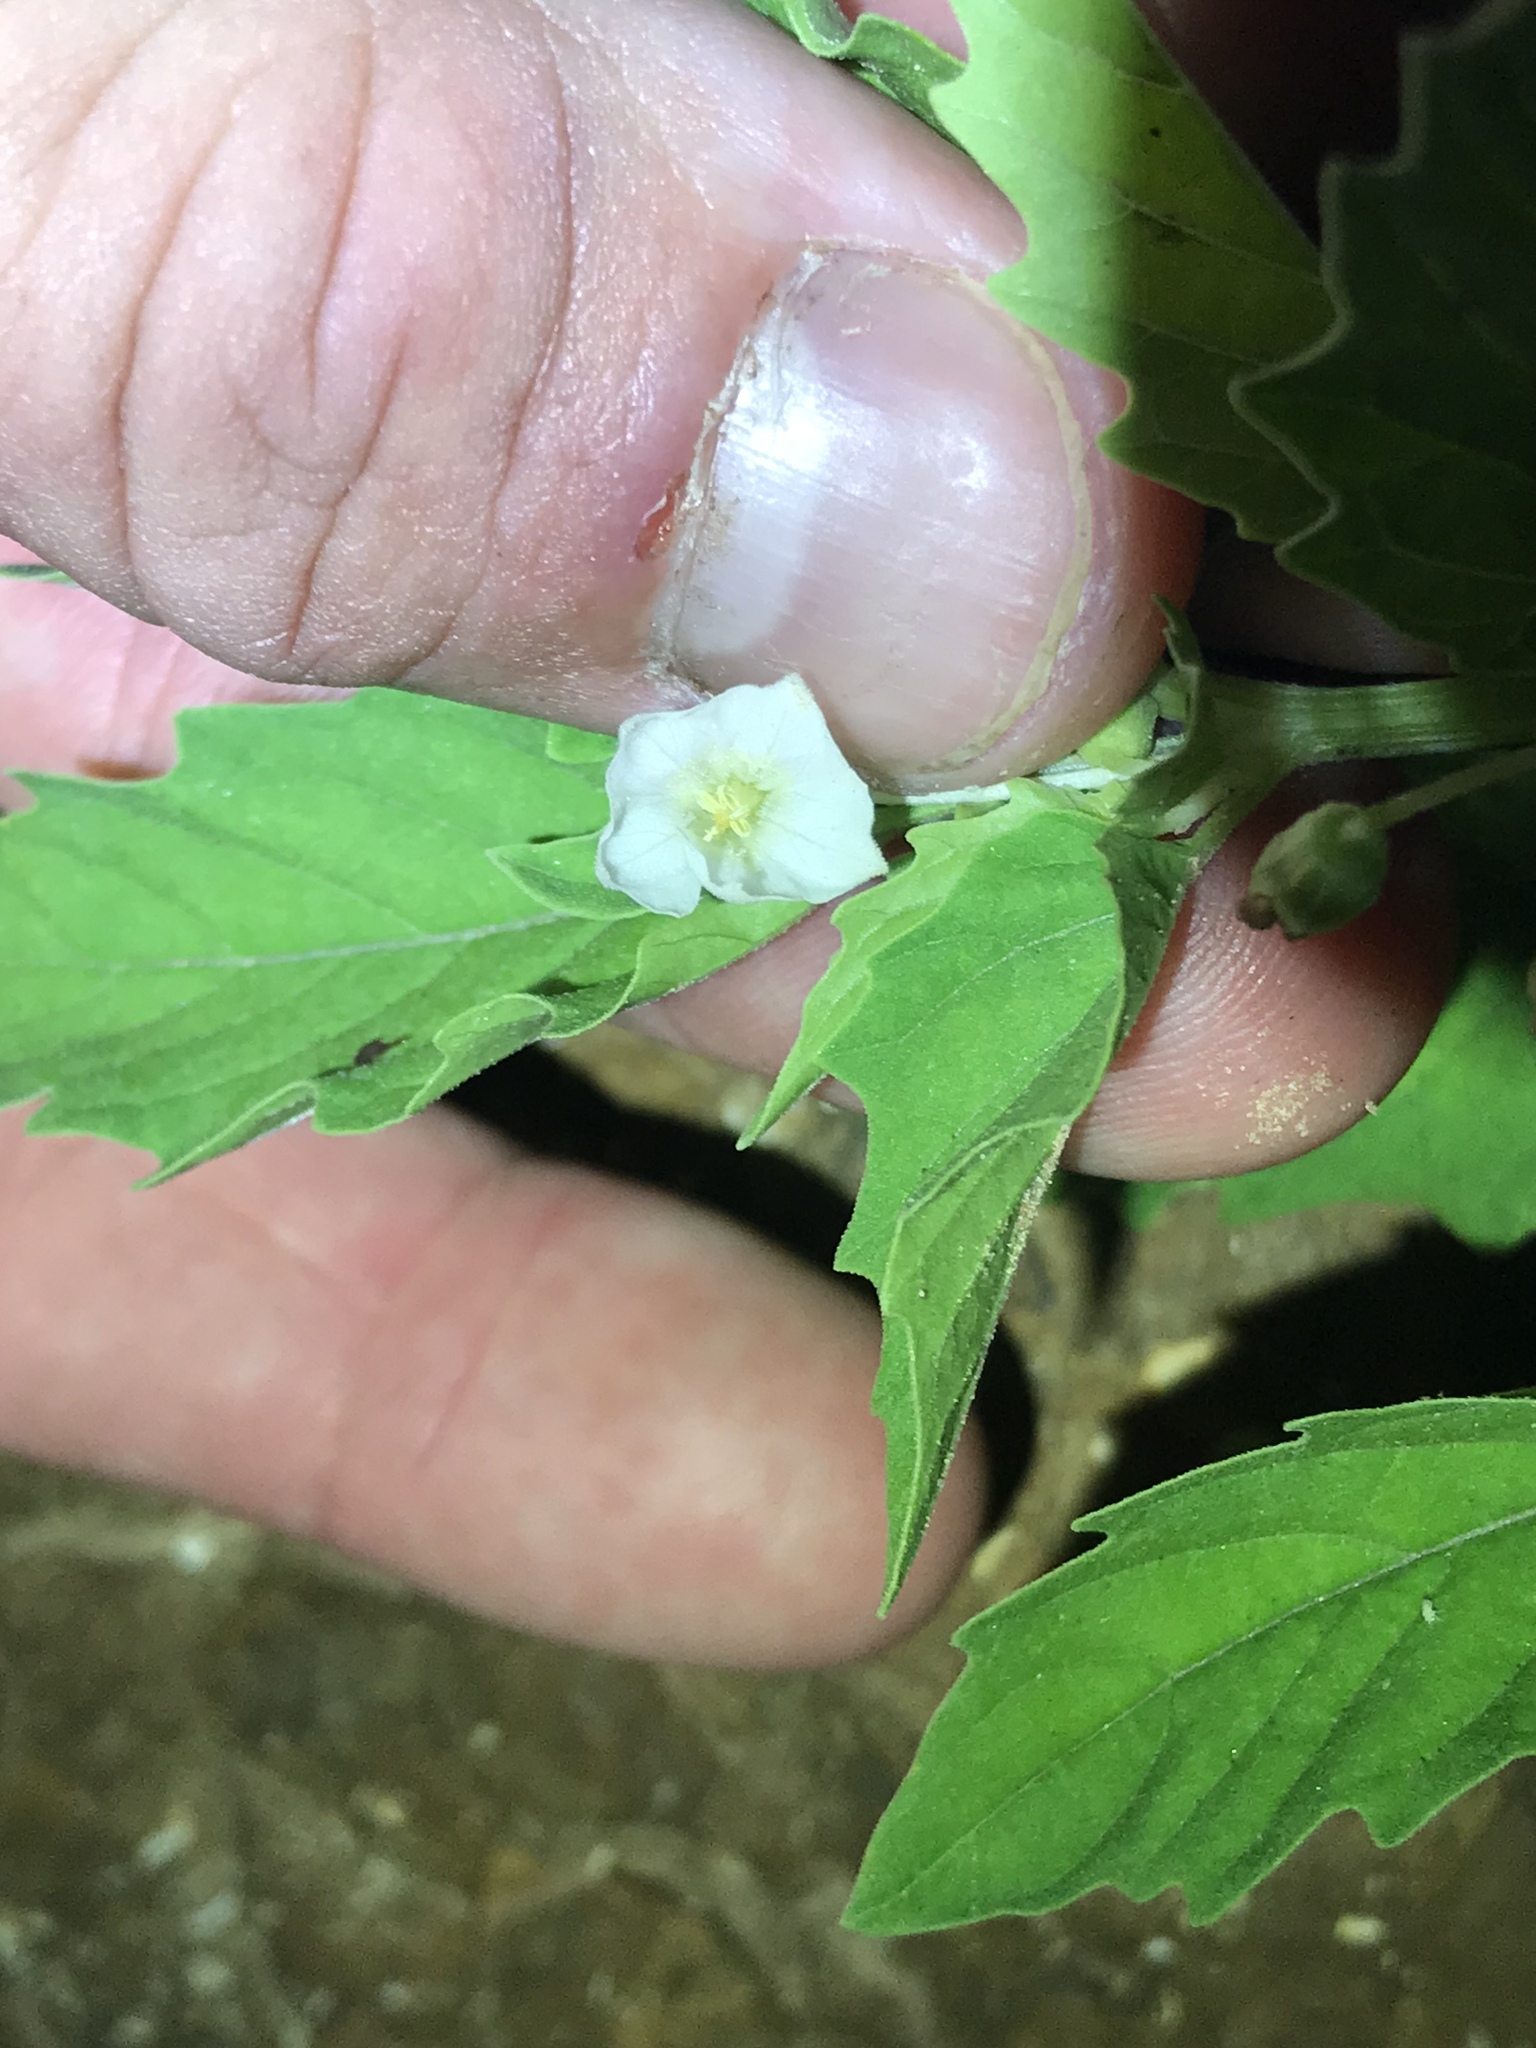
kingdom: Plantae
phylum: Tracheophyta
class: Magnoliopsida
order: Solanales
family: Solanaceae
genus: Physalis
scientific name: Physalis angulata
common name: Angular winter-cherry
